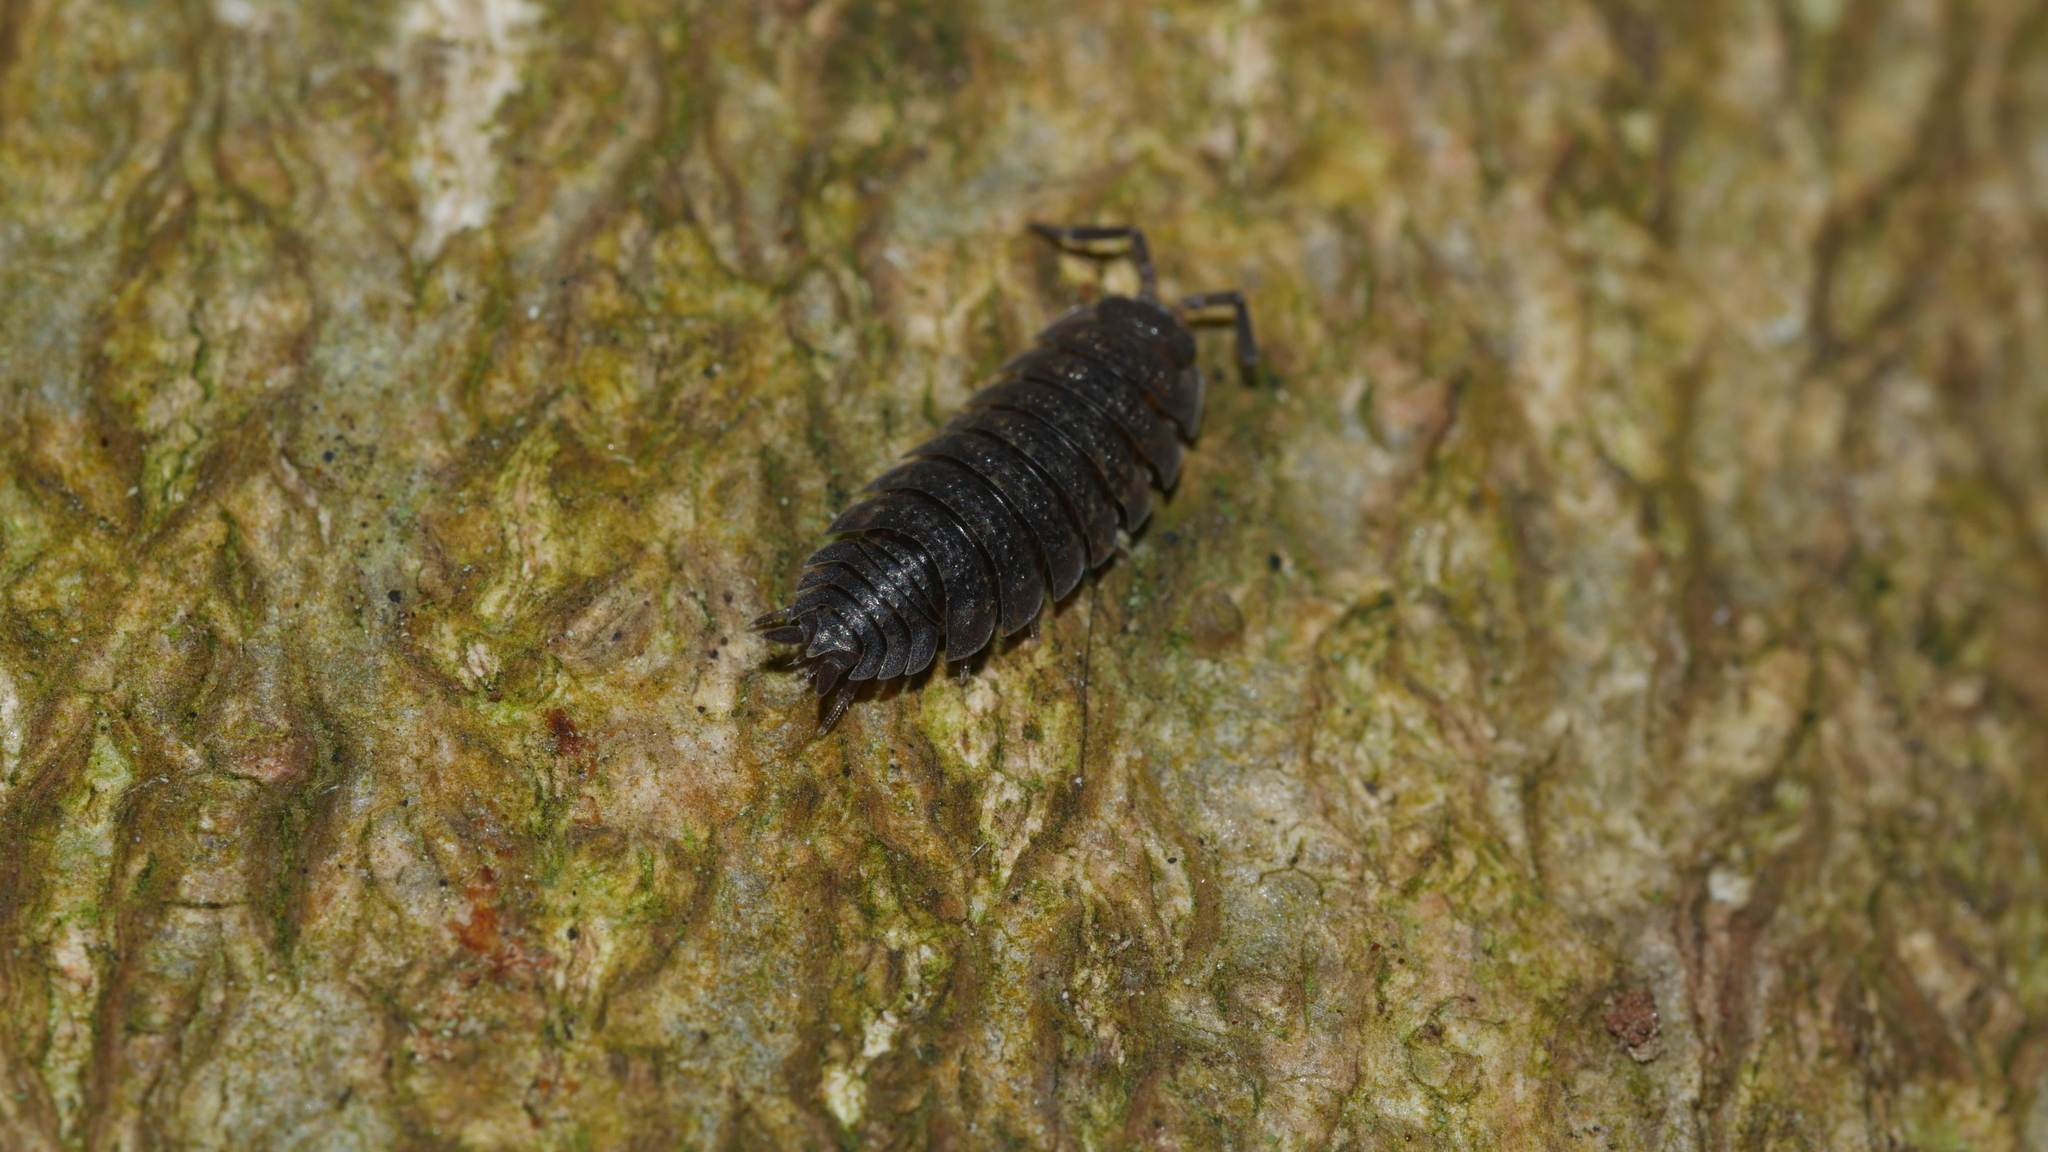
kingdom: Animalia
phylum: Arthropoda
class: Malacostraca
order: Isopoda
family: Porcellionidae
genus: Porcellio
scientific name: Porcellio scaber
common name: Common rough woodlouse
